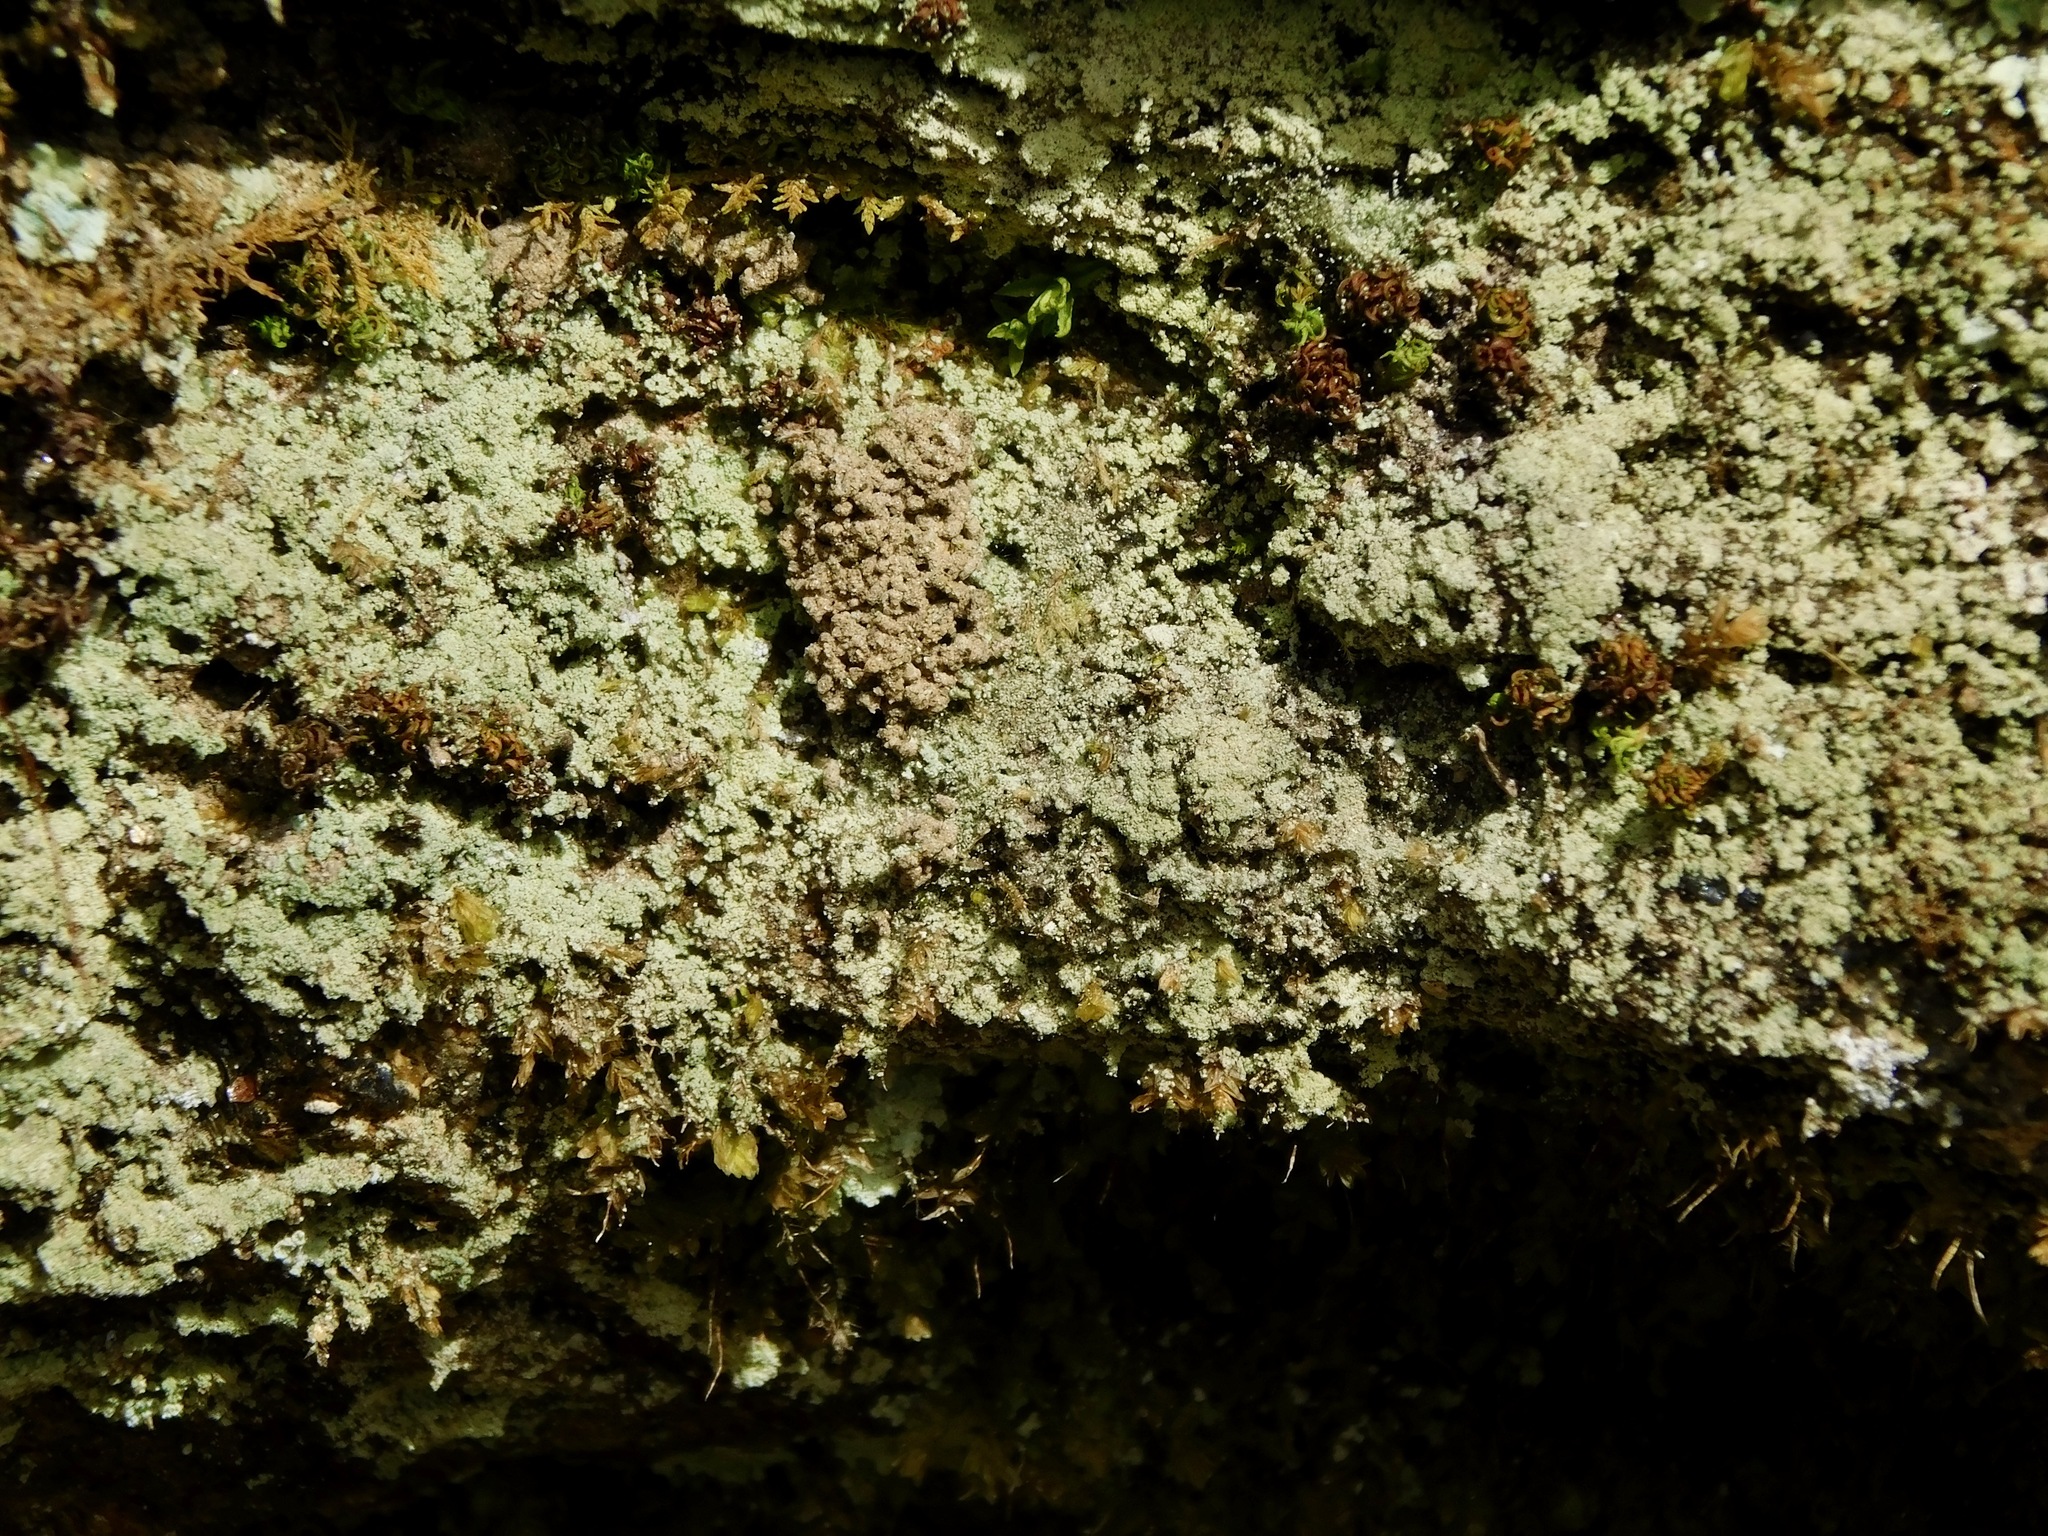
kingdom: Fungi
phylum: Ascomycota
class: Eurotiomycetes
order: Verrucariales
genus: Botryolepraria
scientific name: Botryolepraria lesdainii
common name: Rock candy
